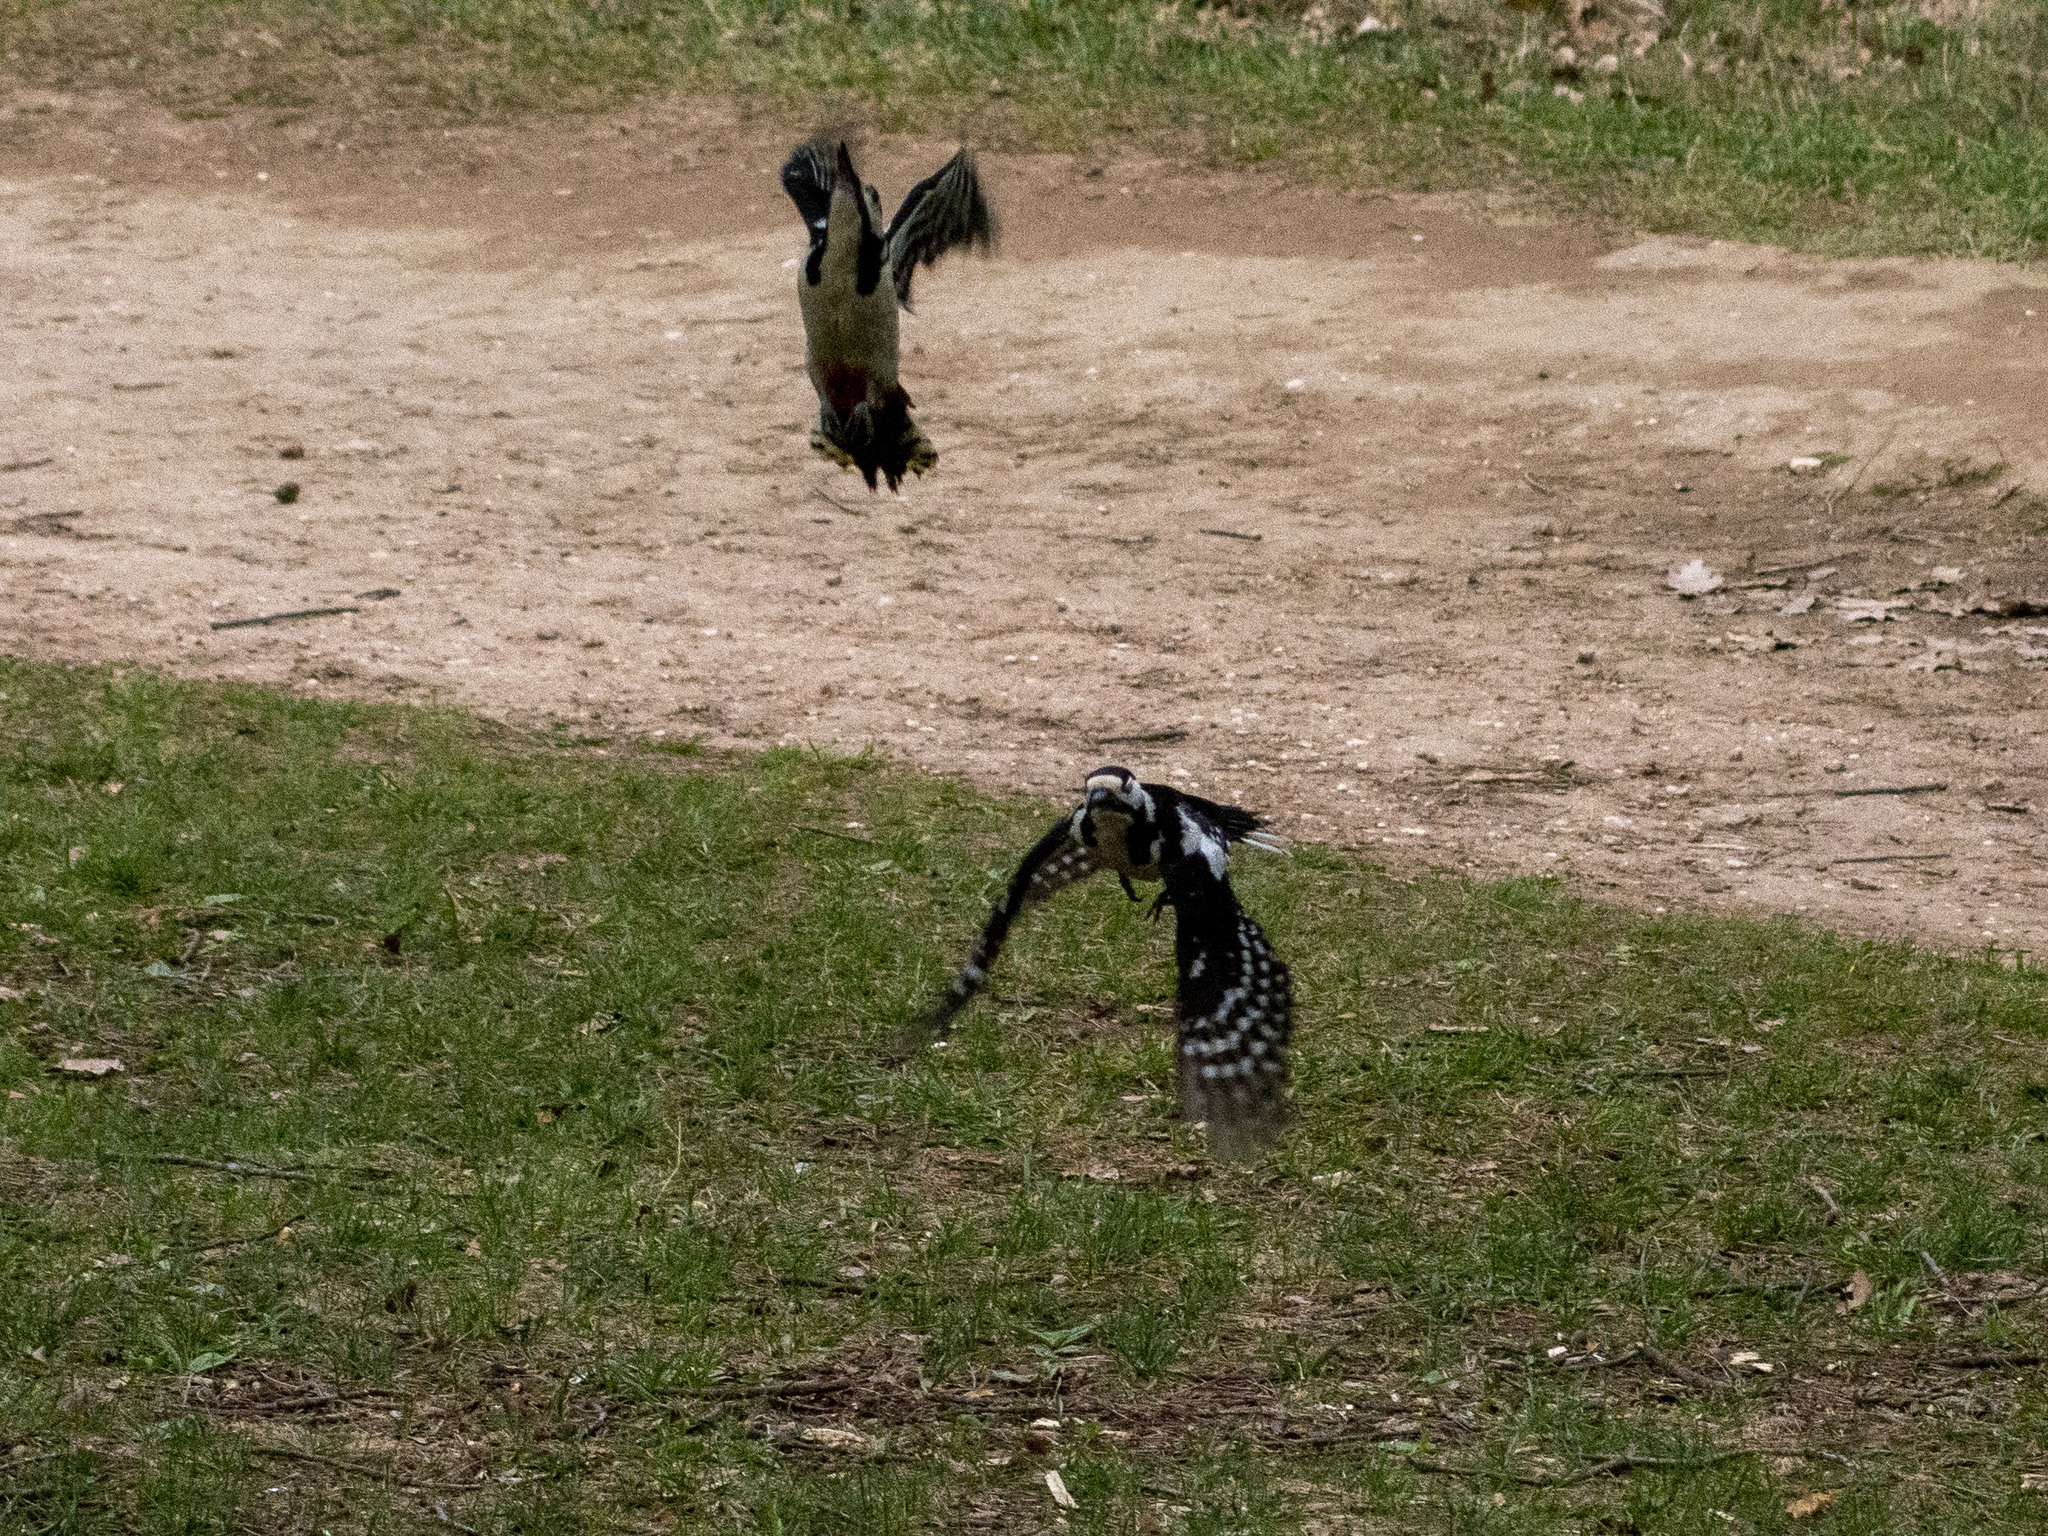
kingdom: Animalia
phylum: Chordata
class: Aves
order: Piciformes
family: Picidae
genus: Dendrocopos
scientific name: Dendrocopos major
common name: Great spotted woodpecker
